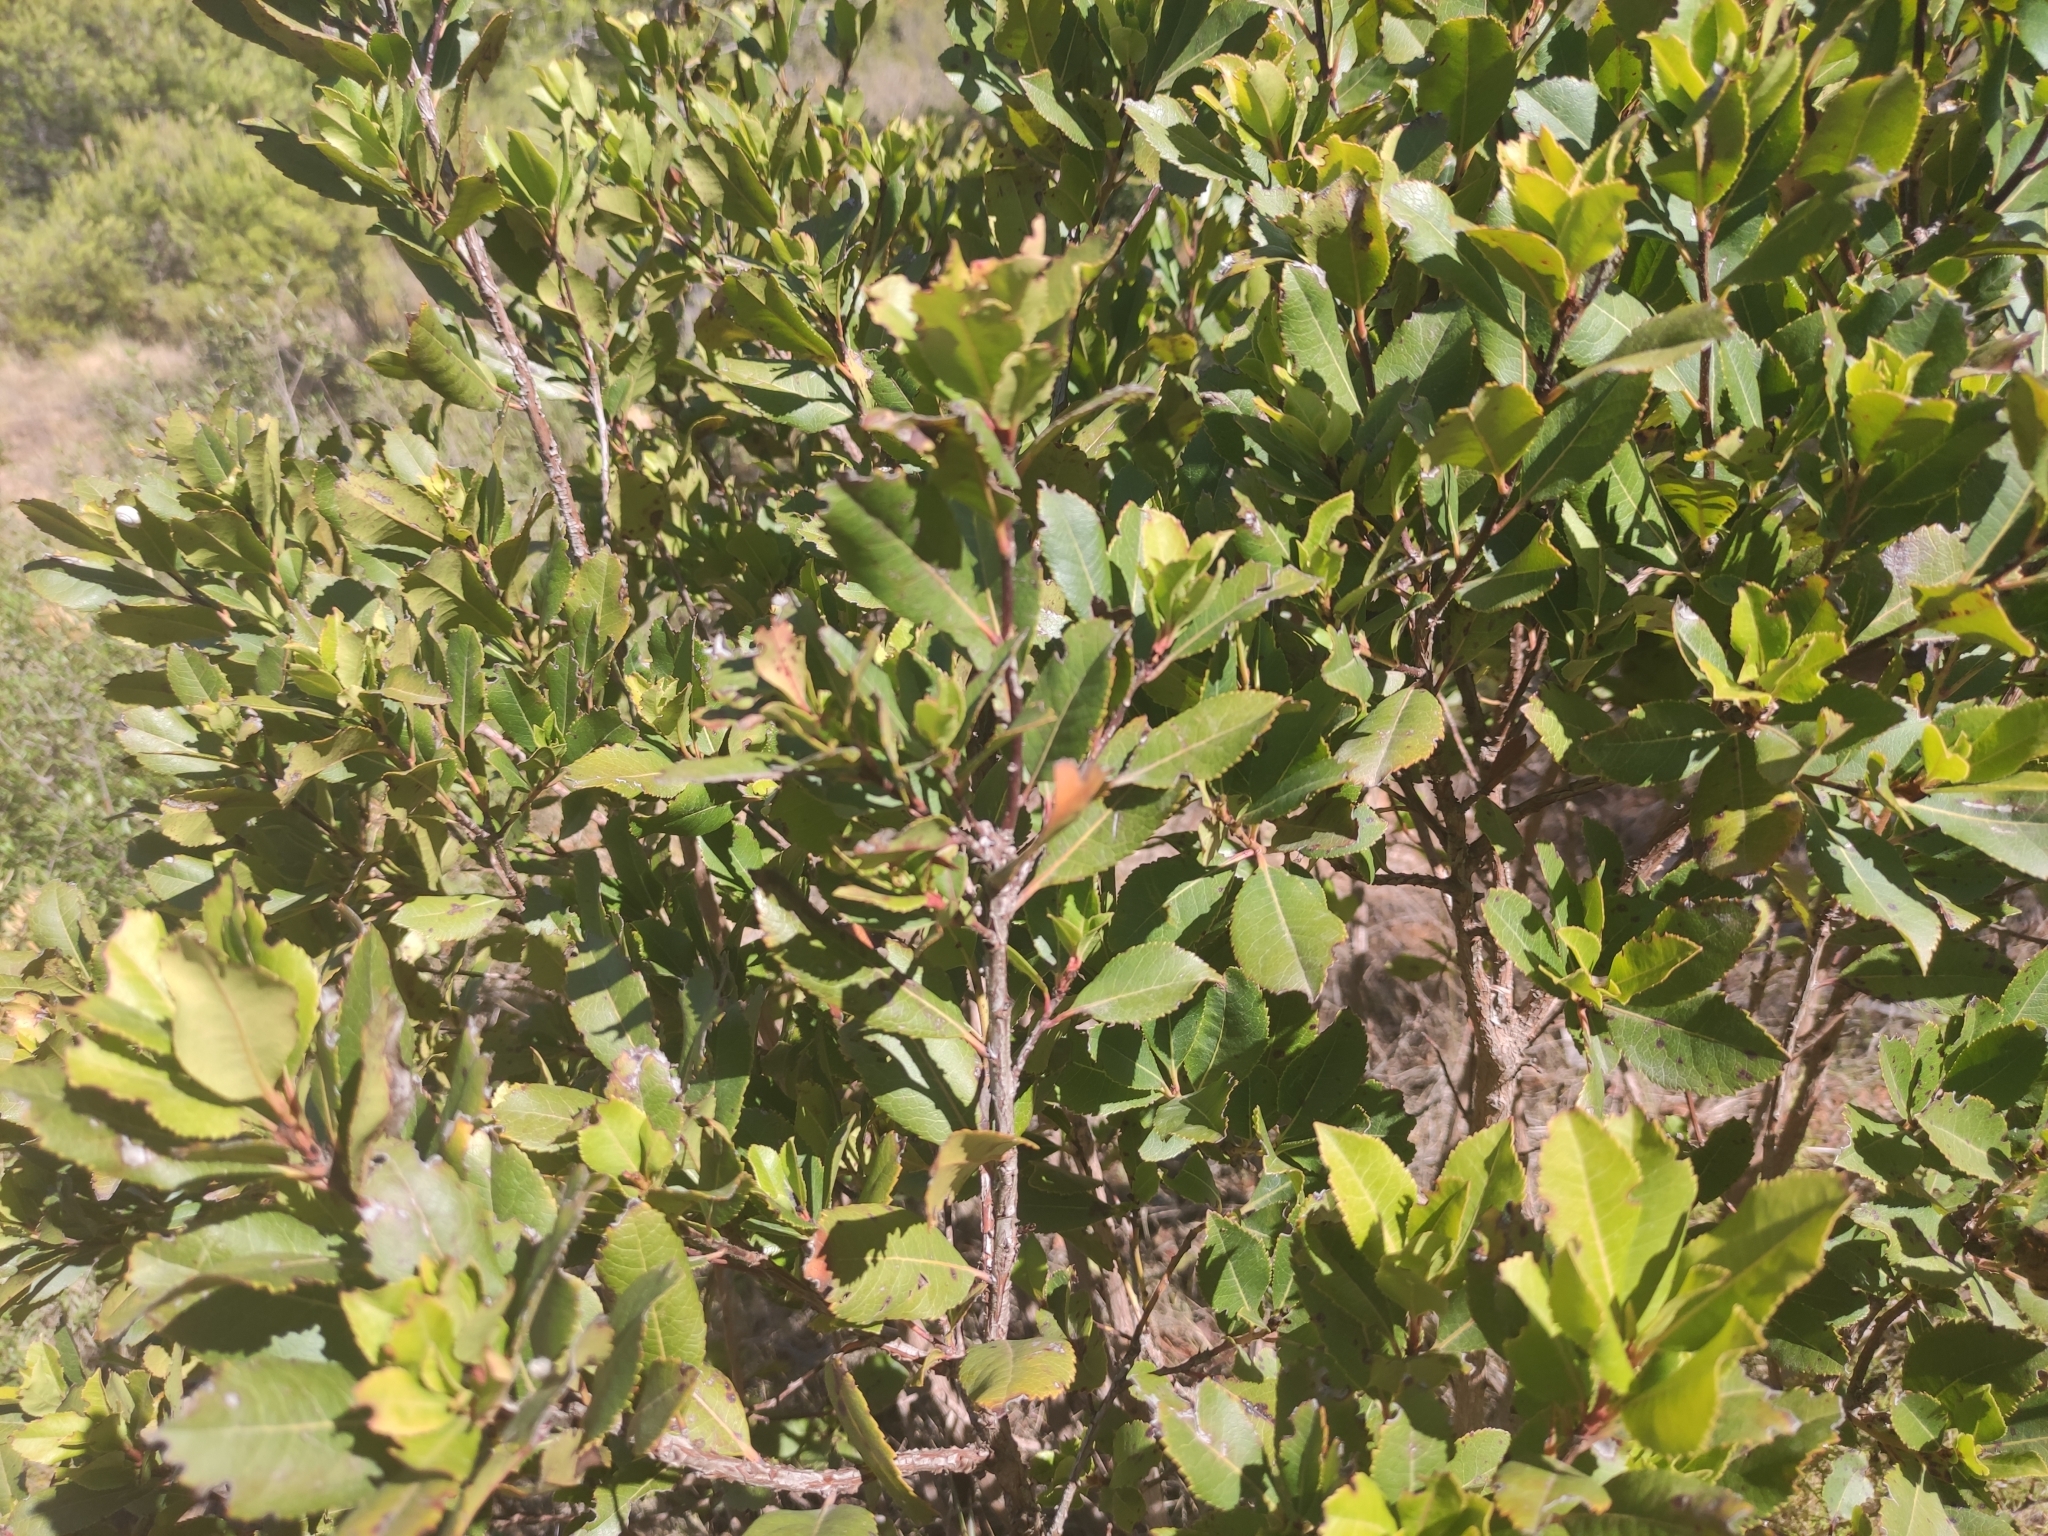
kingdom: Plantae
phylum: Tracheophyta
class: Magnoliopsida
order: Ericales
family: Ericaceae
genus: Arbutus
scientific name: Arbutus unedo
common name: Strawberry-tree
